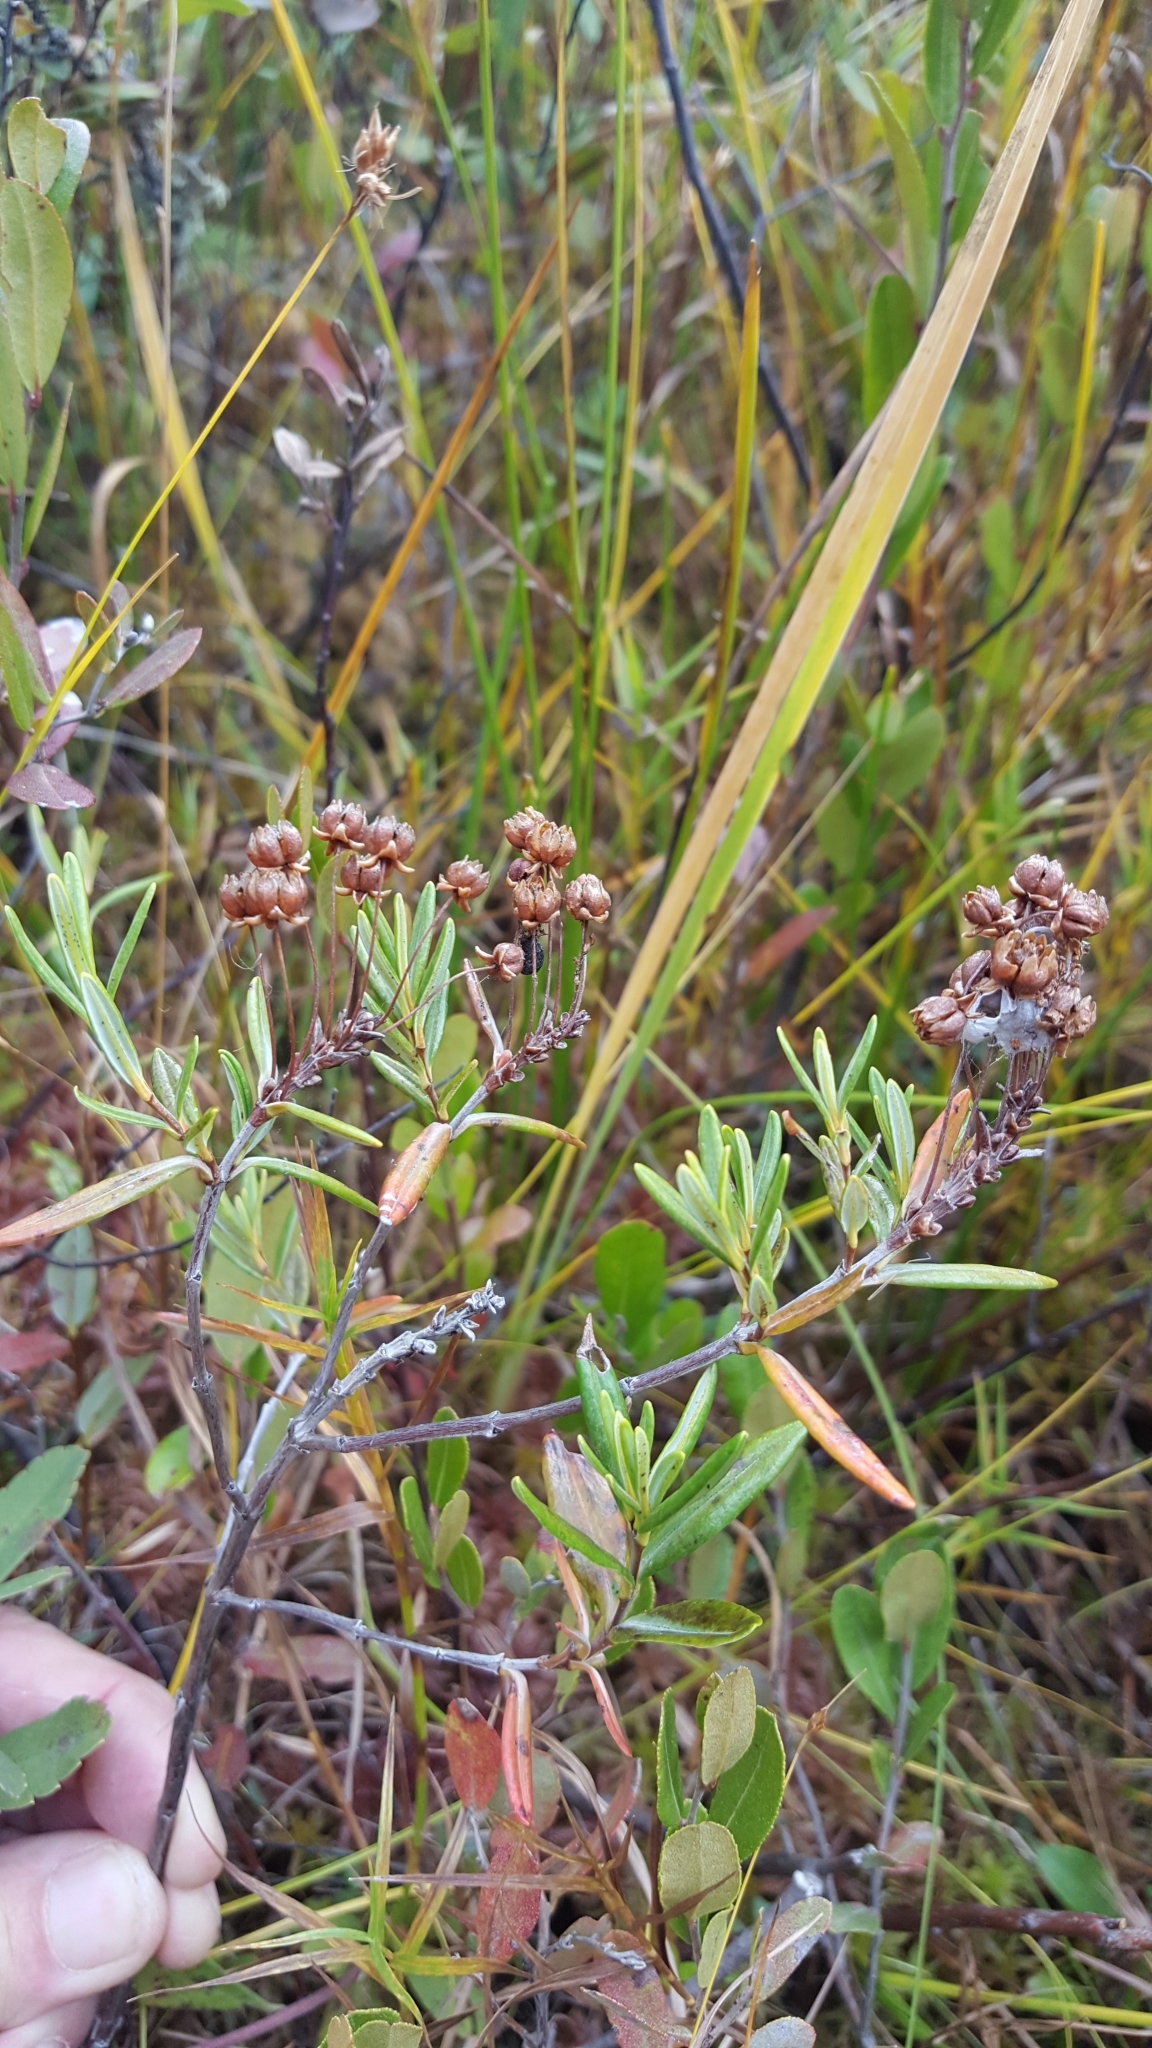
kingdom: Plantae
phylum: Tracheophyta
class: Magnoliopsida
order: Ericales
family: Ericaceae
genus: Kalmia
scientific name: Kalmia polifolia
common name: Bog-laurel
